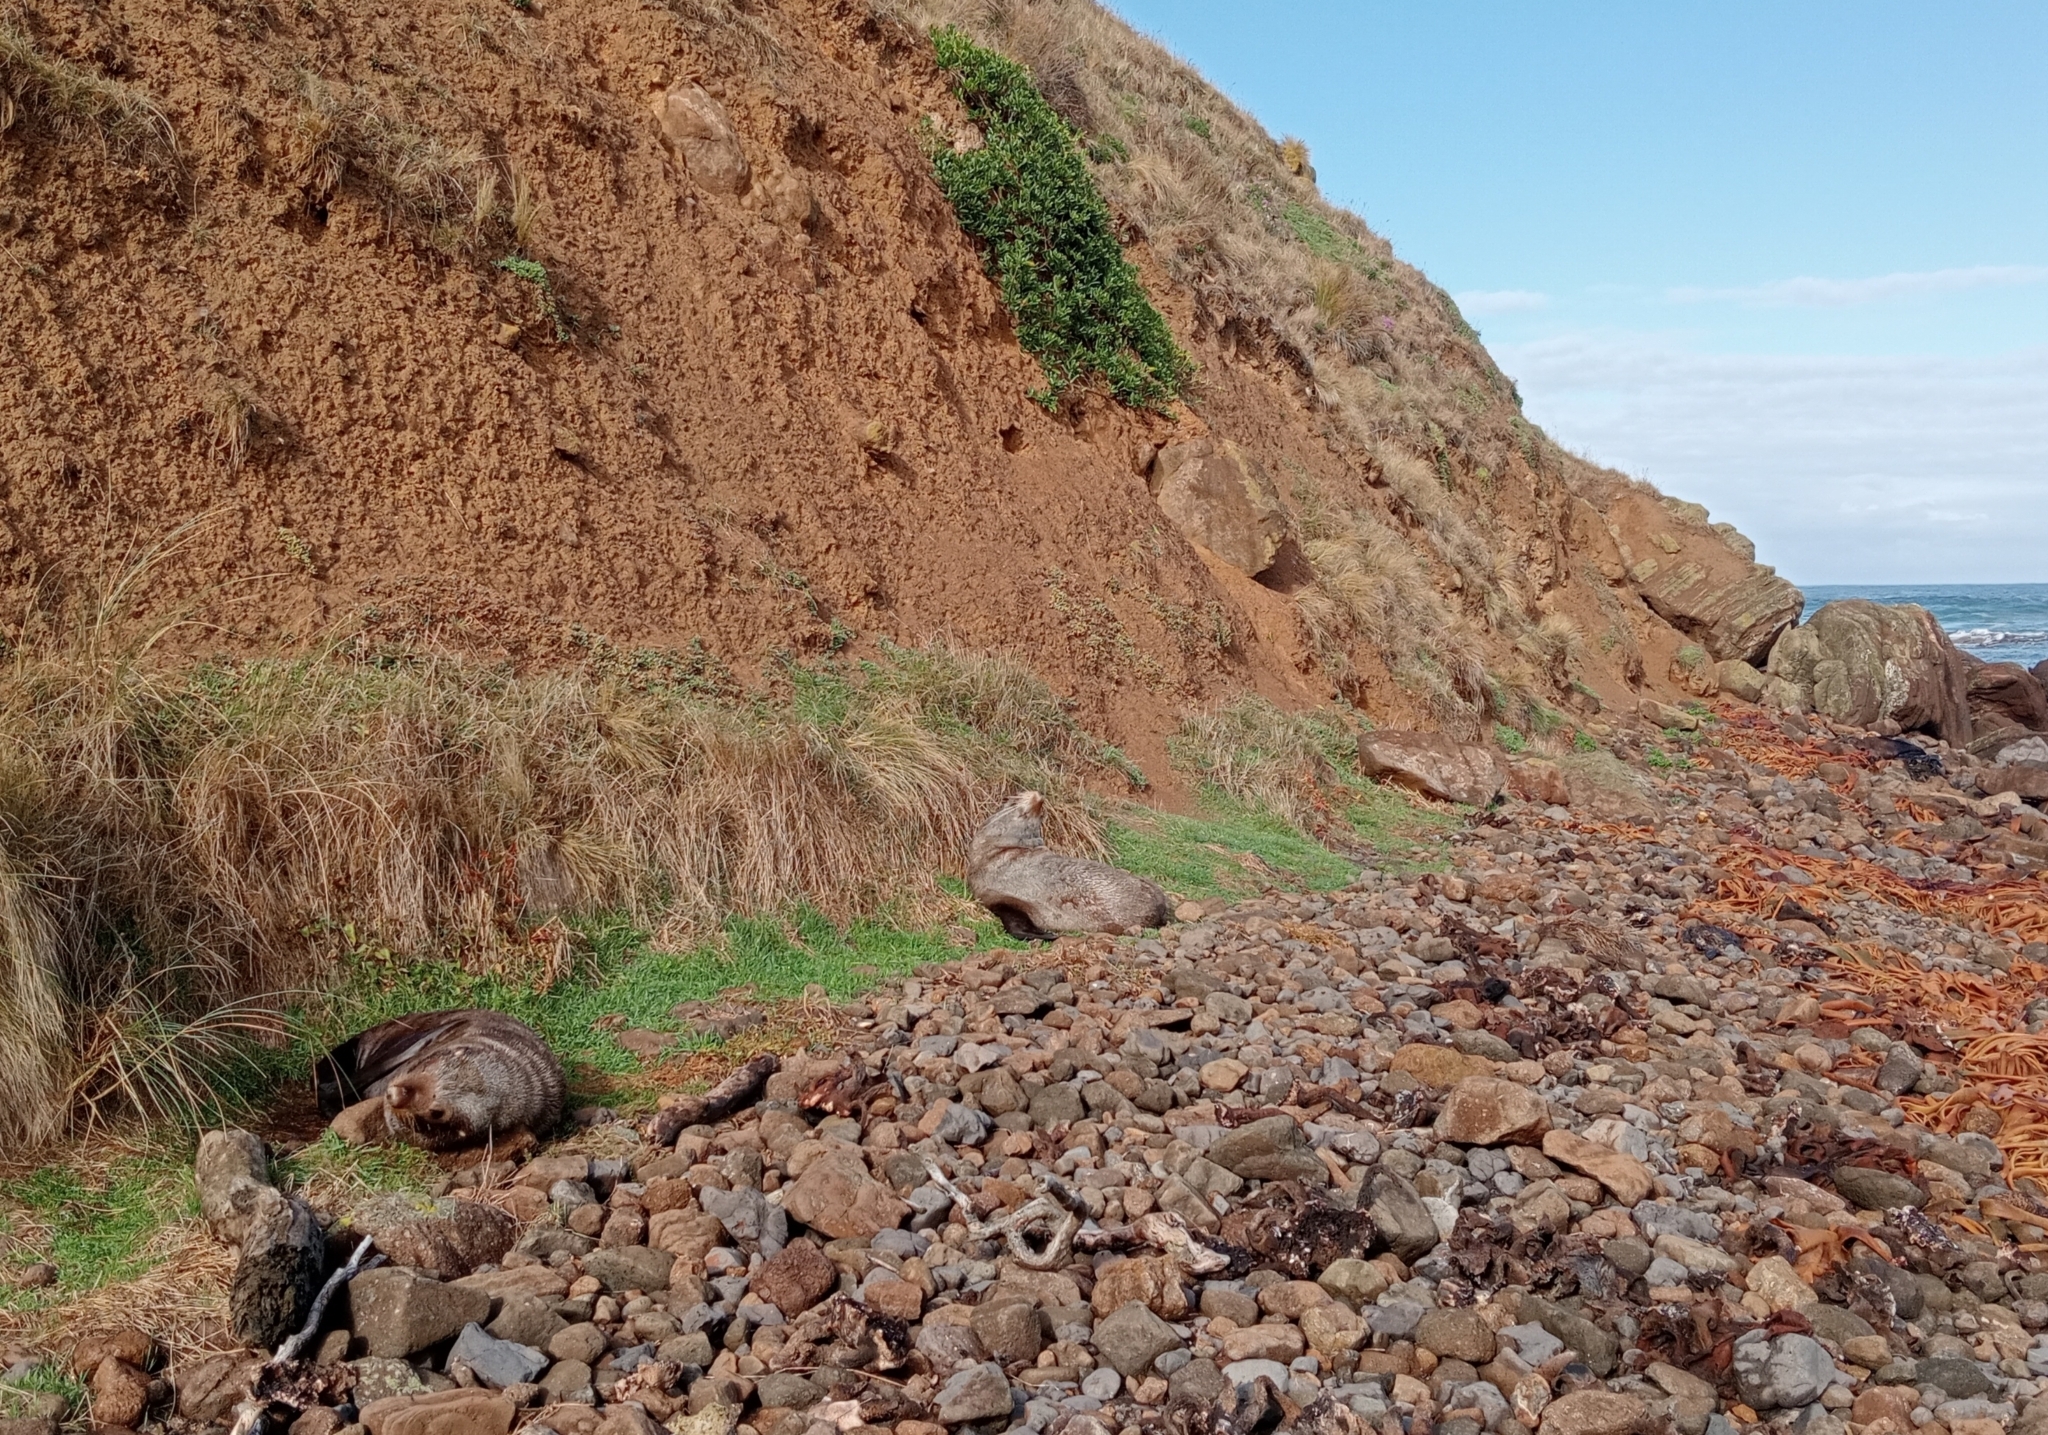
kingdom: Animalia
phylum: Chordata
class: Mammalia
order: Carnivora
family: Otariidae
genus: Arctocephalus
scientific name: Arctocephalus forsteri
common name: New zealand fur seal
